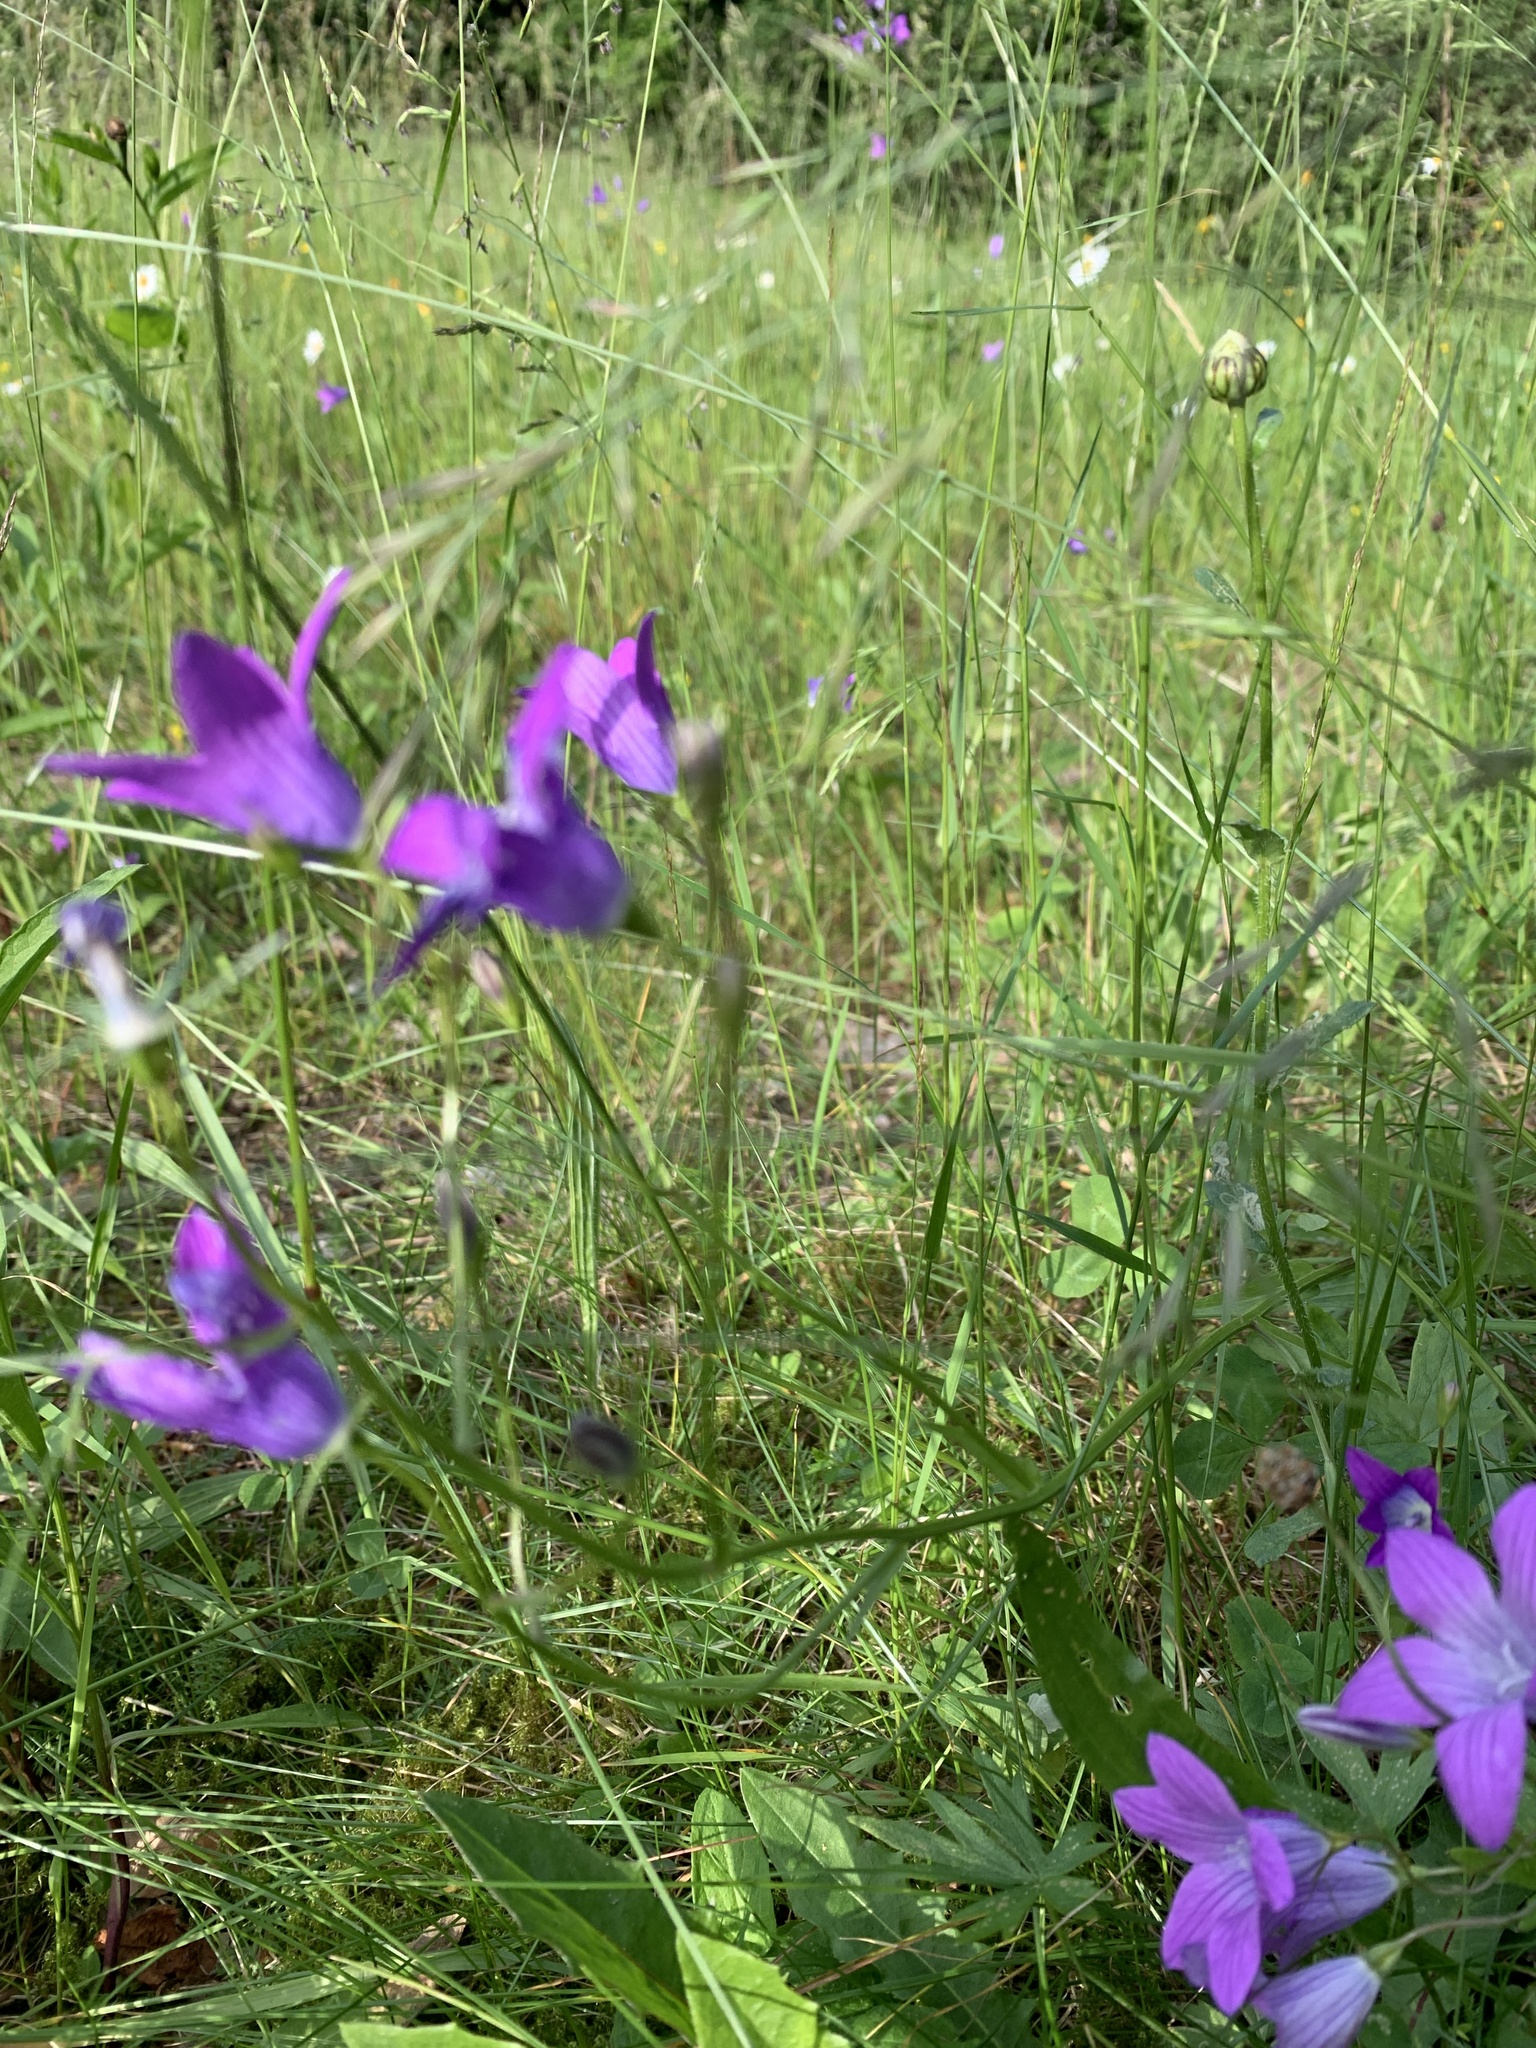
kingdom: Plantae
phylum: Tracheophyta
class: Magnoliopsida
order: Asterales
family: Campanulaceae
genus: Campanula
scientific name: Campanula patula
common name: Spreading bellflower
